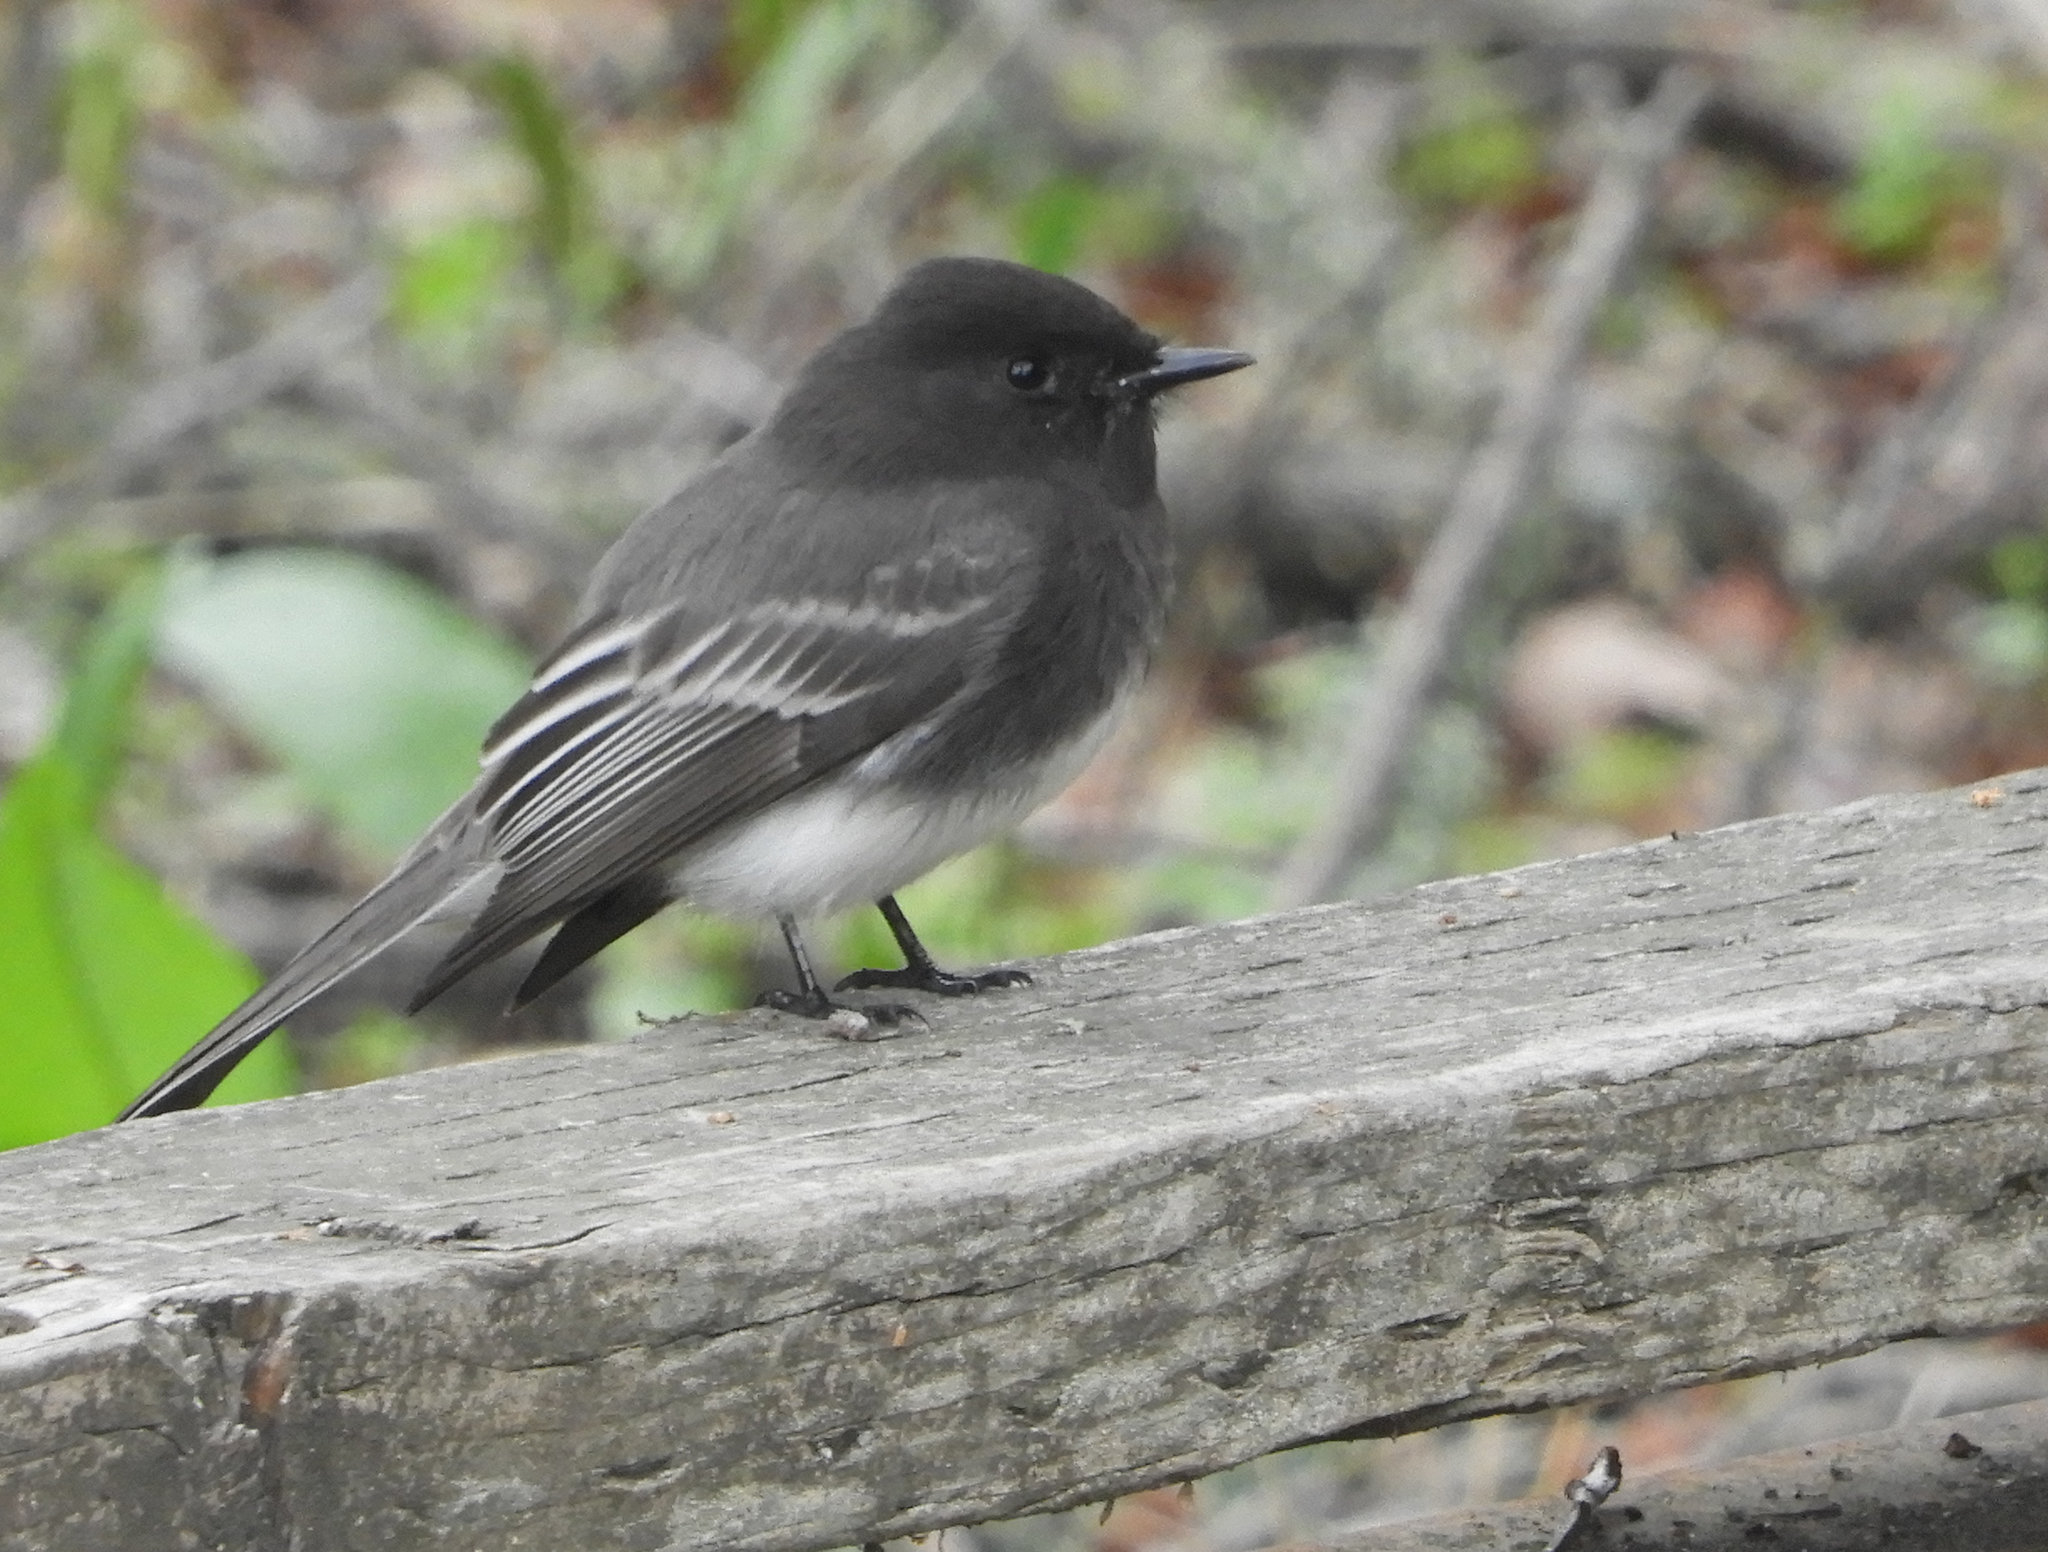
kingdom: Animalia
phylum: Chordata
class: Aves
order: Passeriformes
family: Tyrannidae
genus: Sayornis
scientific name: Sayornis nigricans
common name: Black phoebe
